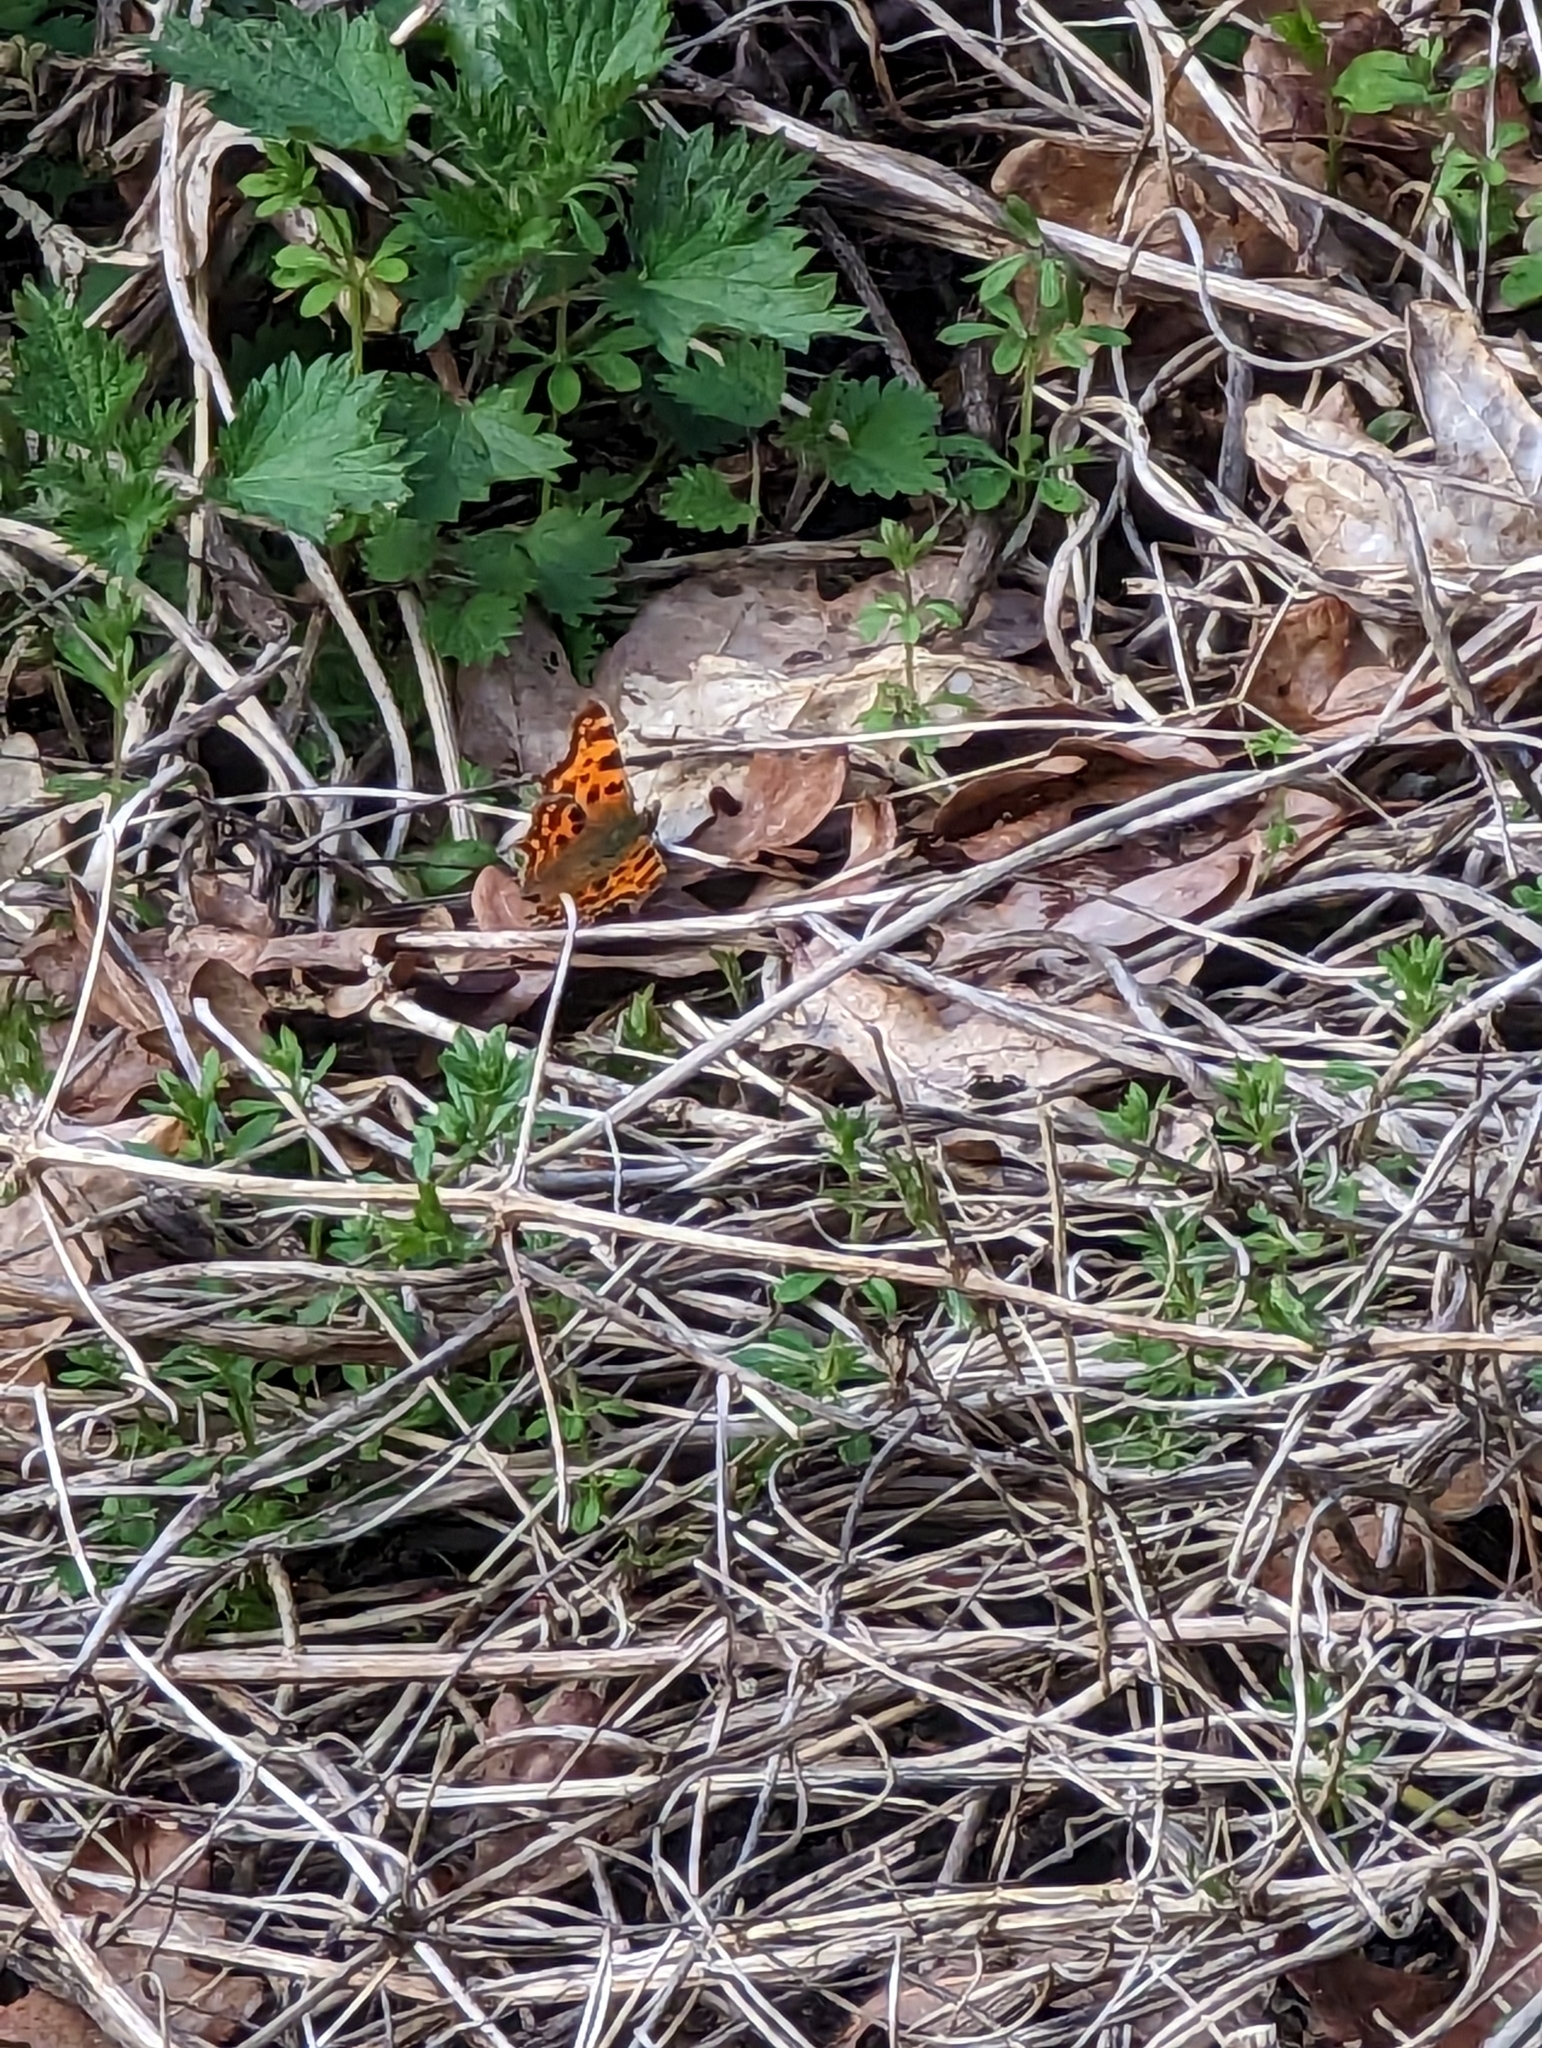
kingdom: Animalia
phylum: Arthropoda
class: Insecta
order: Lepidoptera
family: Nymphalidae
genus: Polygonia
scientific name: Polygonia c-album
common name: Comma
